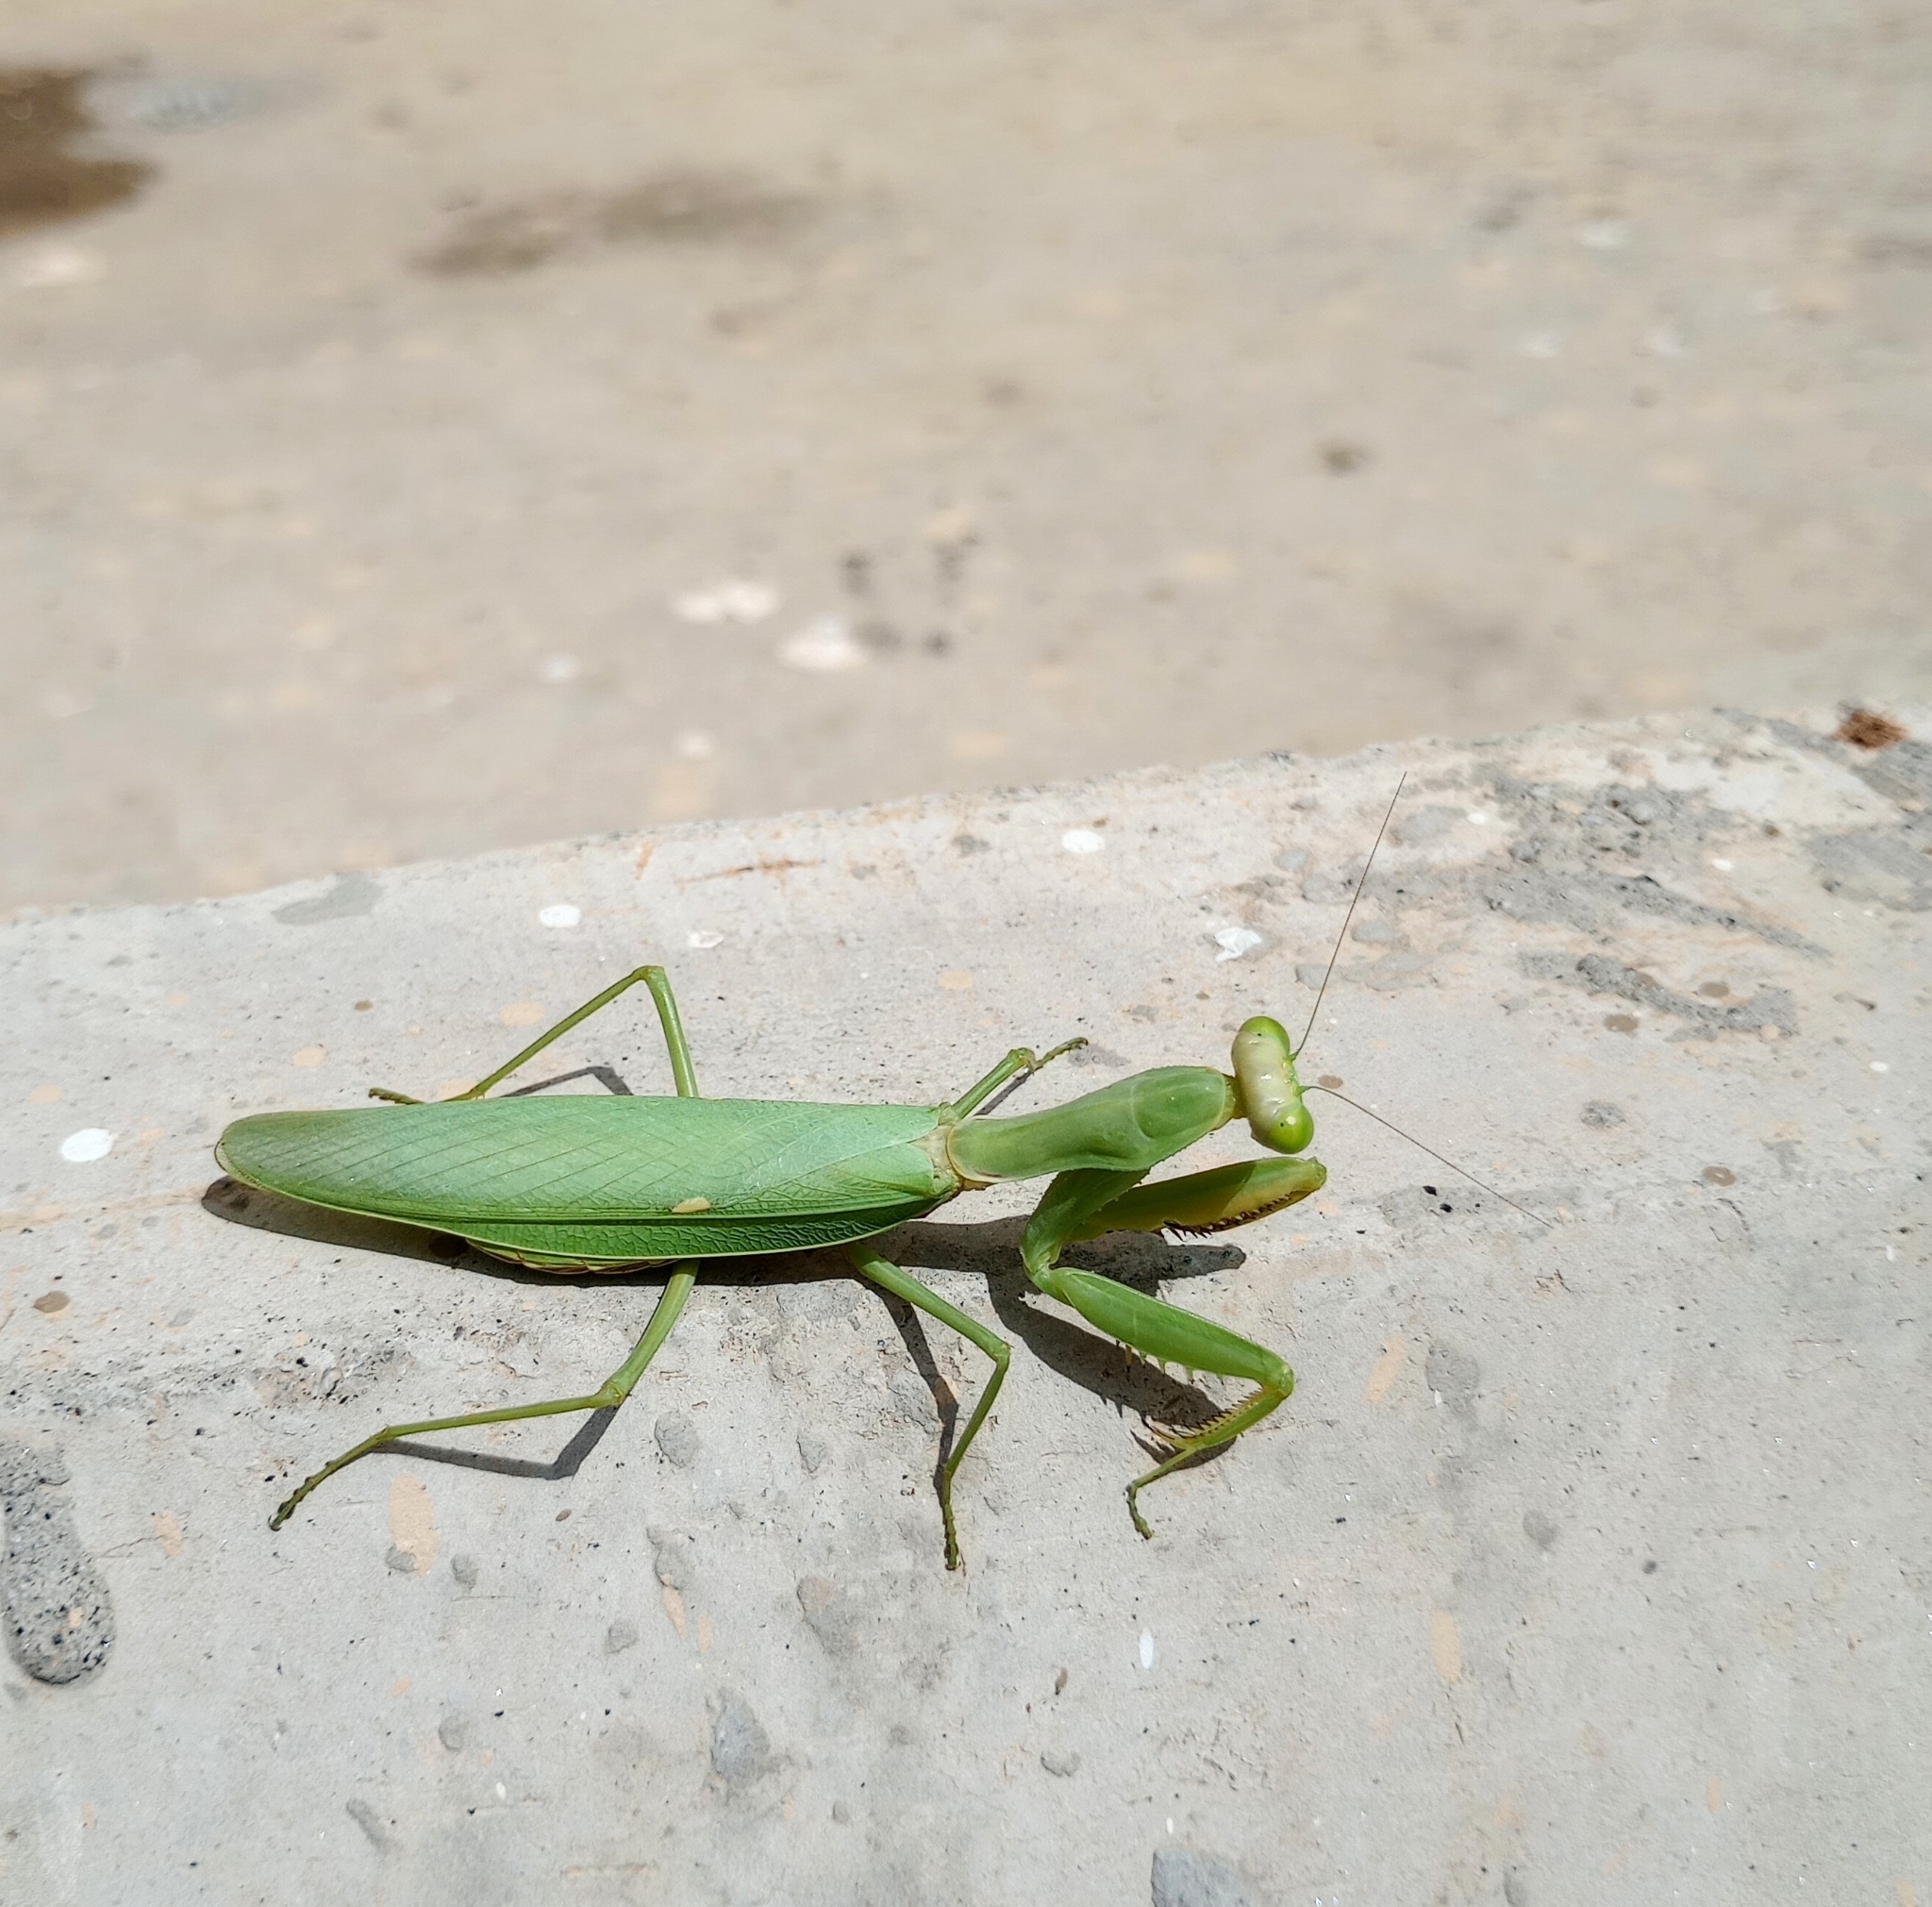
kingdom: Animalia
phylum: Arthropoda
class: Insecta
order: Mantodea
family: Mantidae
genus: Hierodula
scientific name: Hierodula tenuidentata
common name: Giant asian mantis
